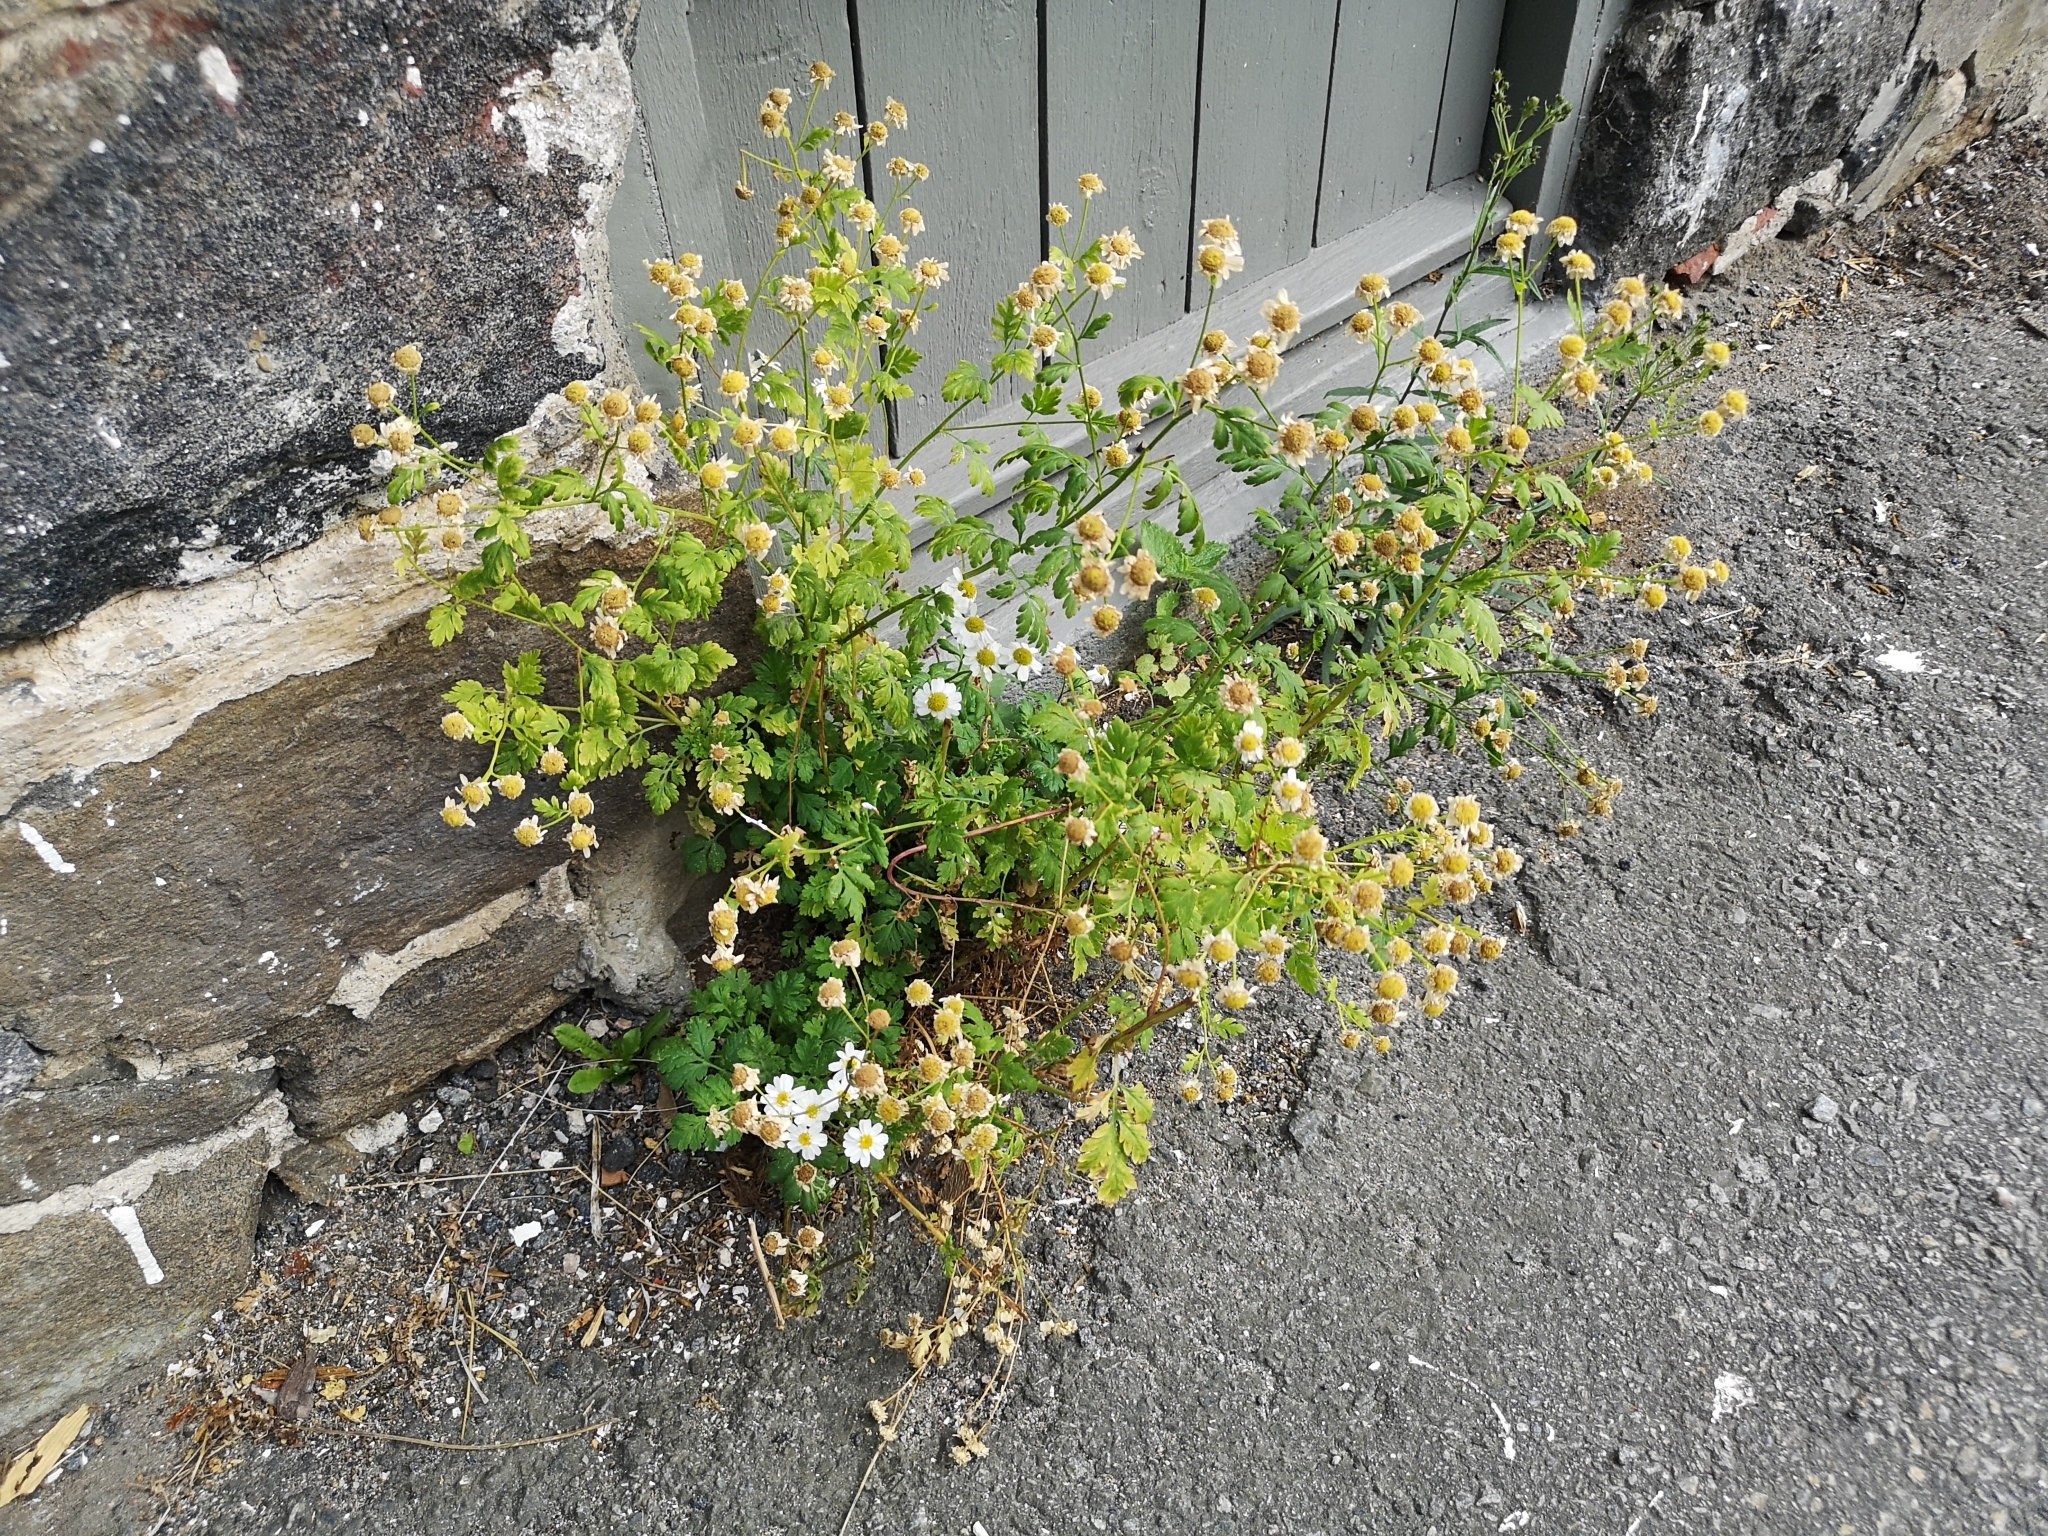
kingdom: Plantae
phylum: Tracheophyta
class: Magnoliopsida
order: Asterales
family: Asteraceae
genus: Tanacetum
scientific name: Tanacetum parthenium
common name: Feverfew
